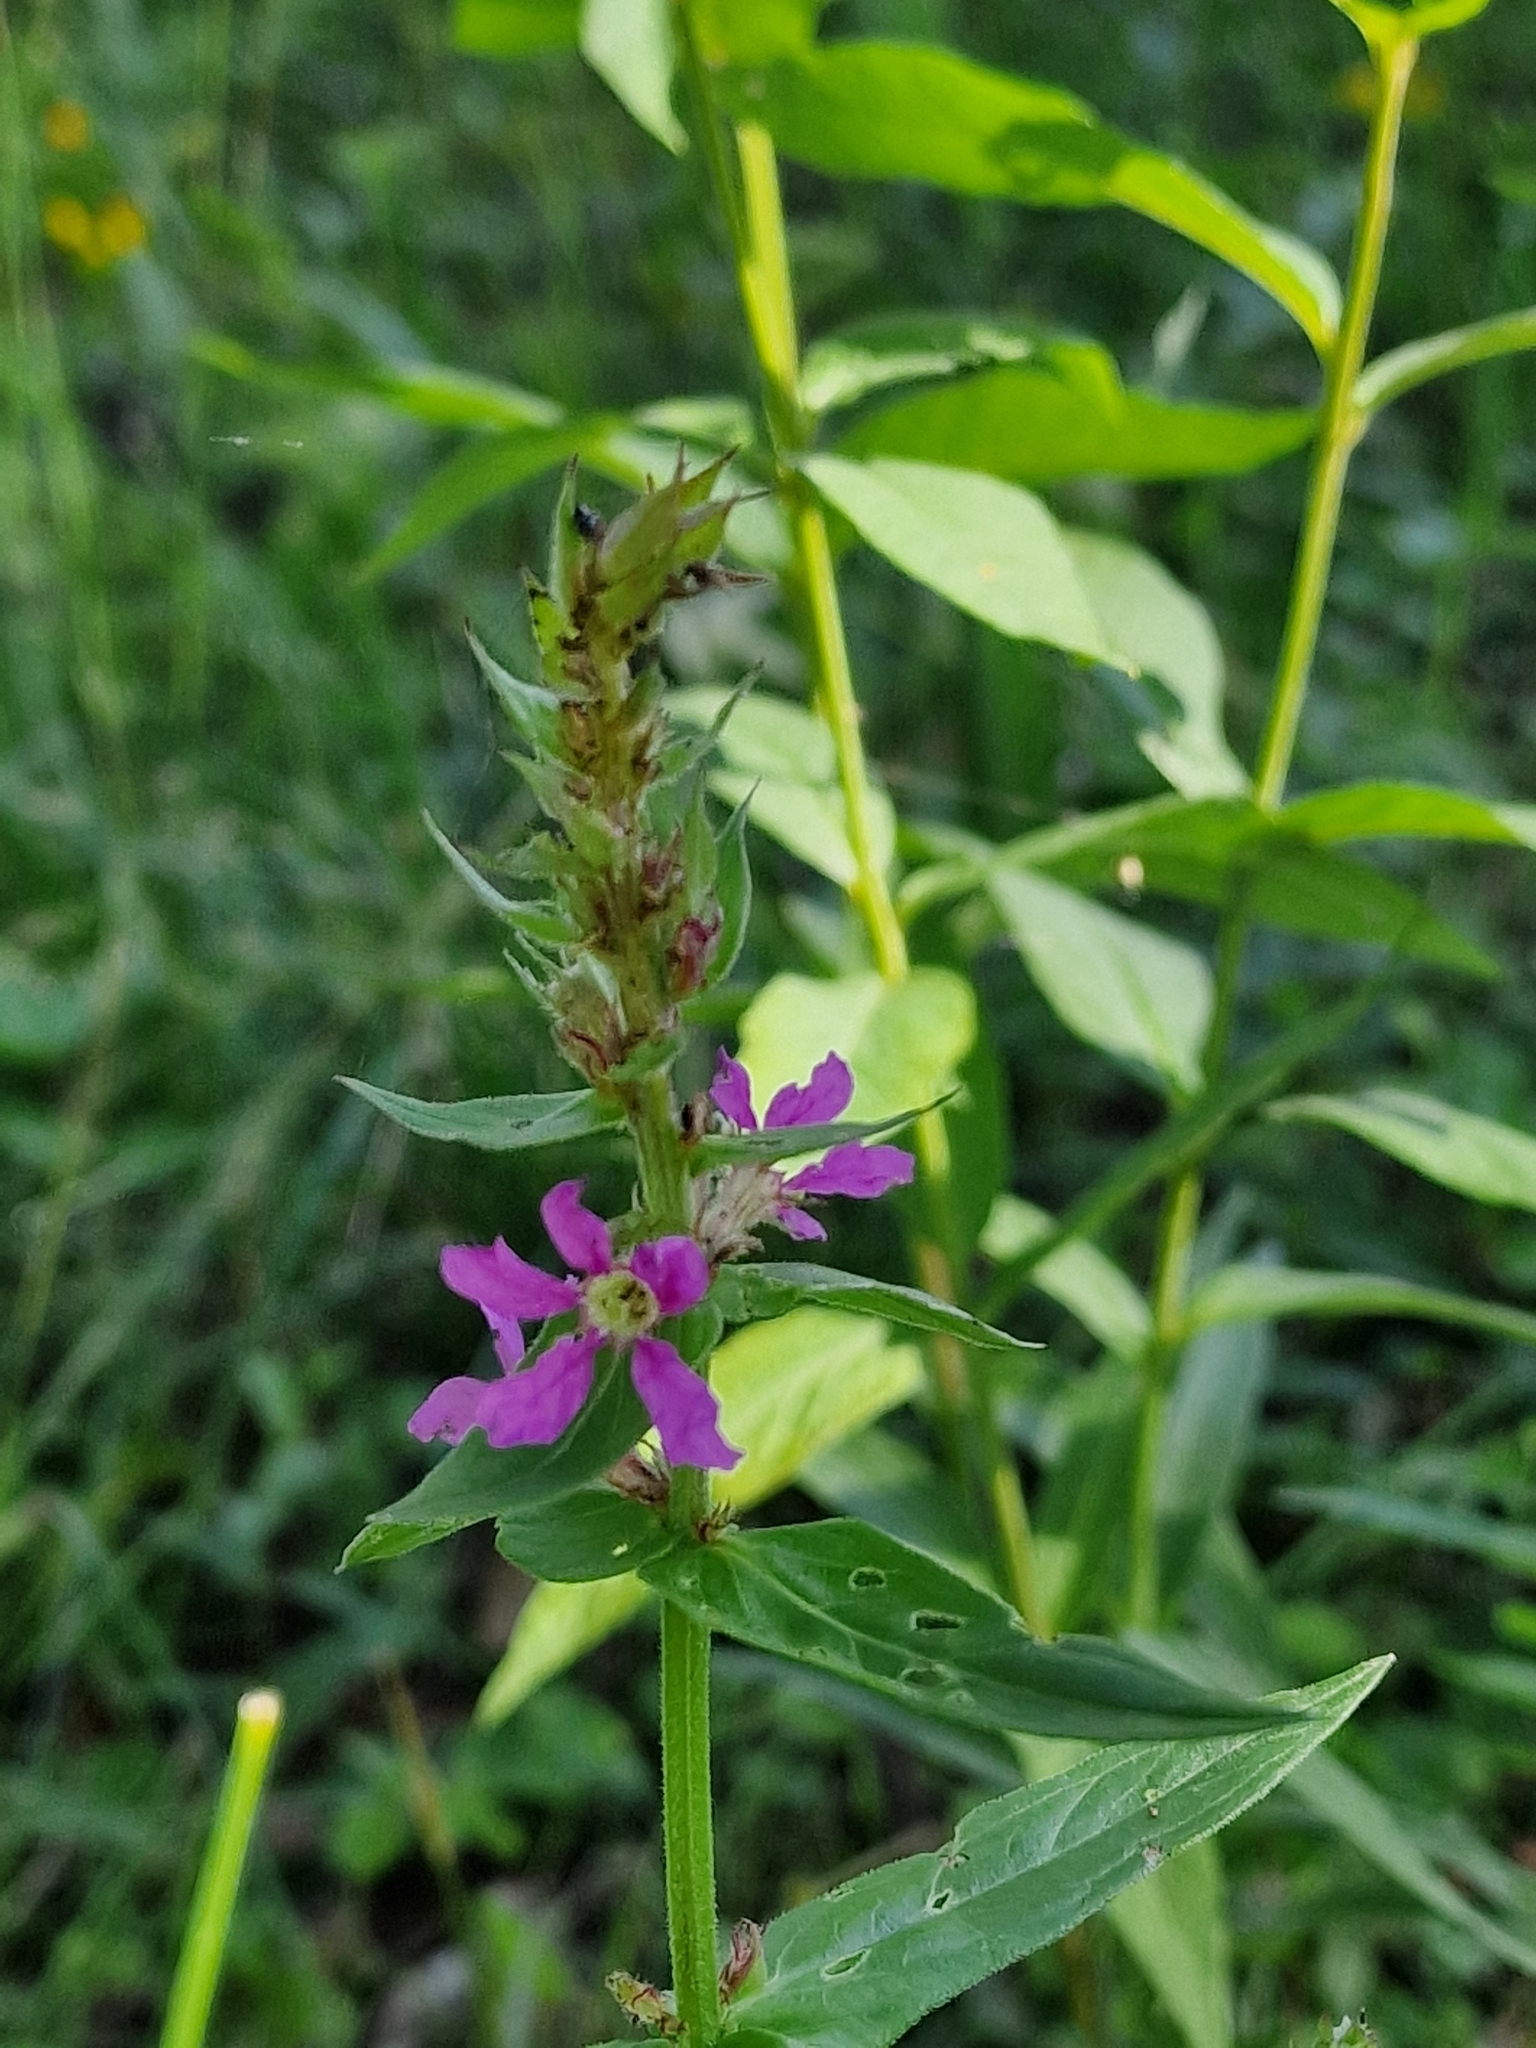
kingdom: Plantae
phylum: Tracheophyta
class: Magnoliopsida
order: Myrtales
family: Lythraceae
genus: Lythrum
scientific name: Lythrum salicaria
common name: Purple loosestrife
